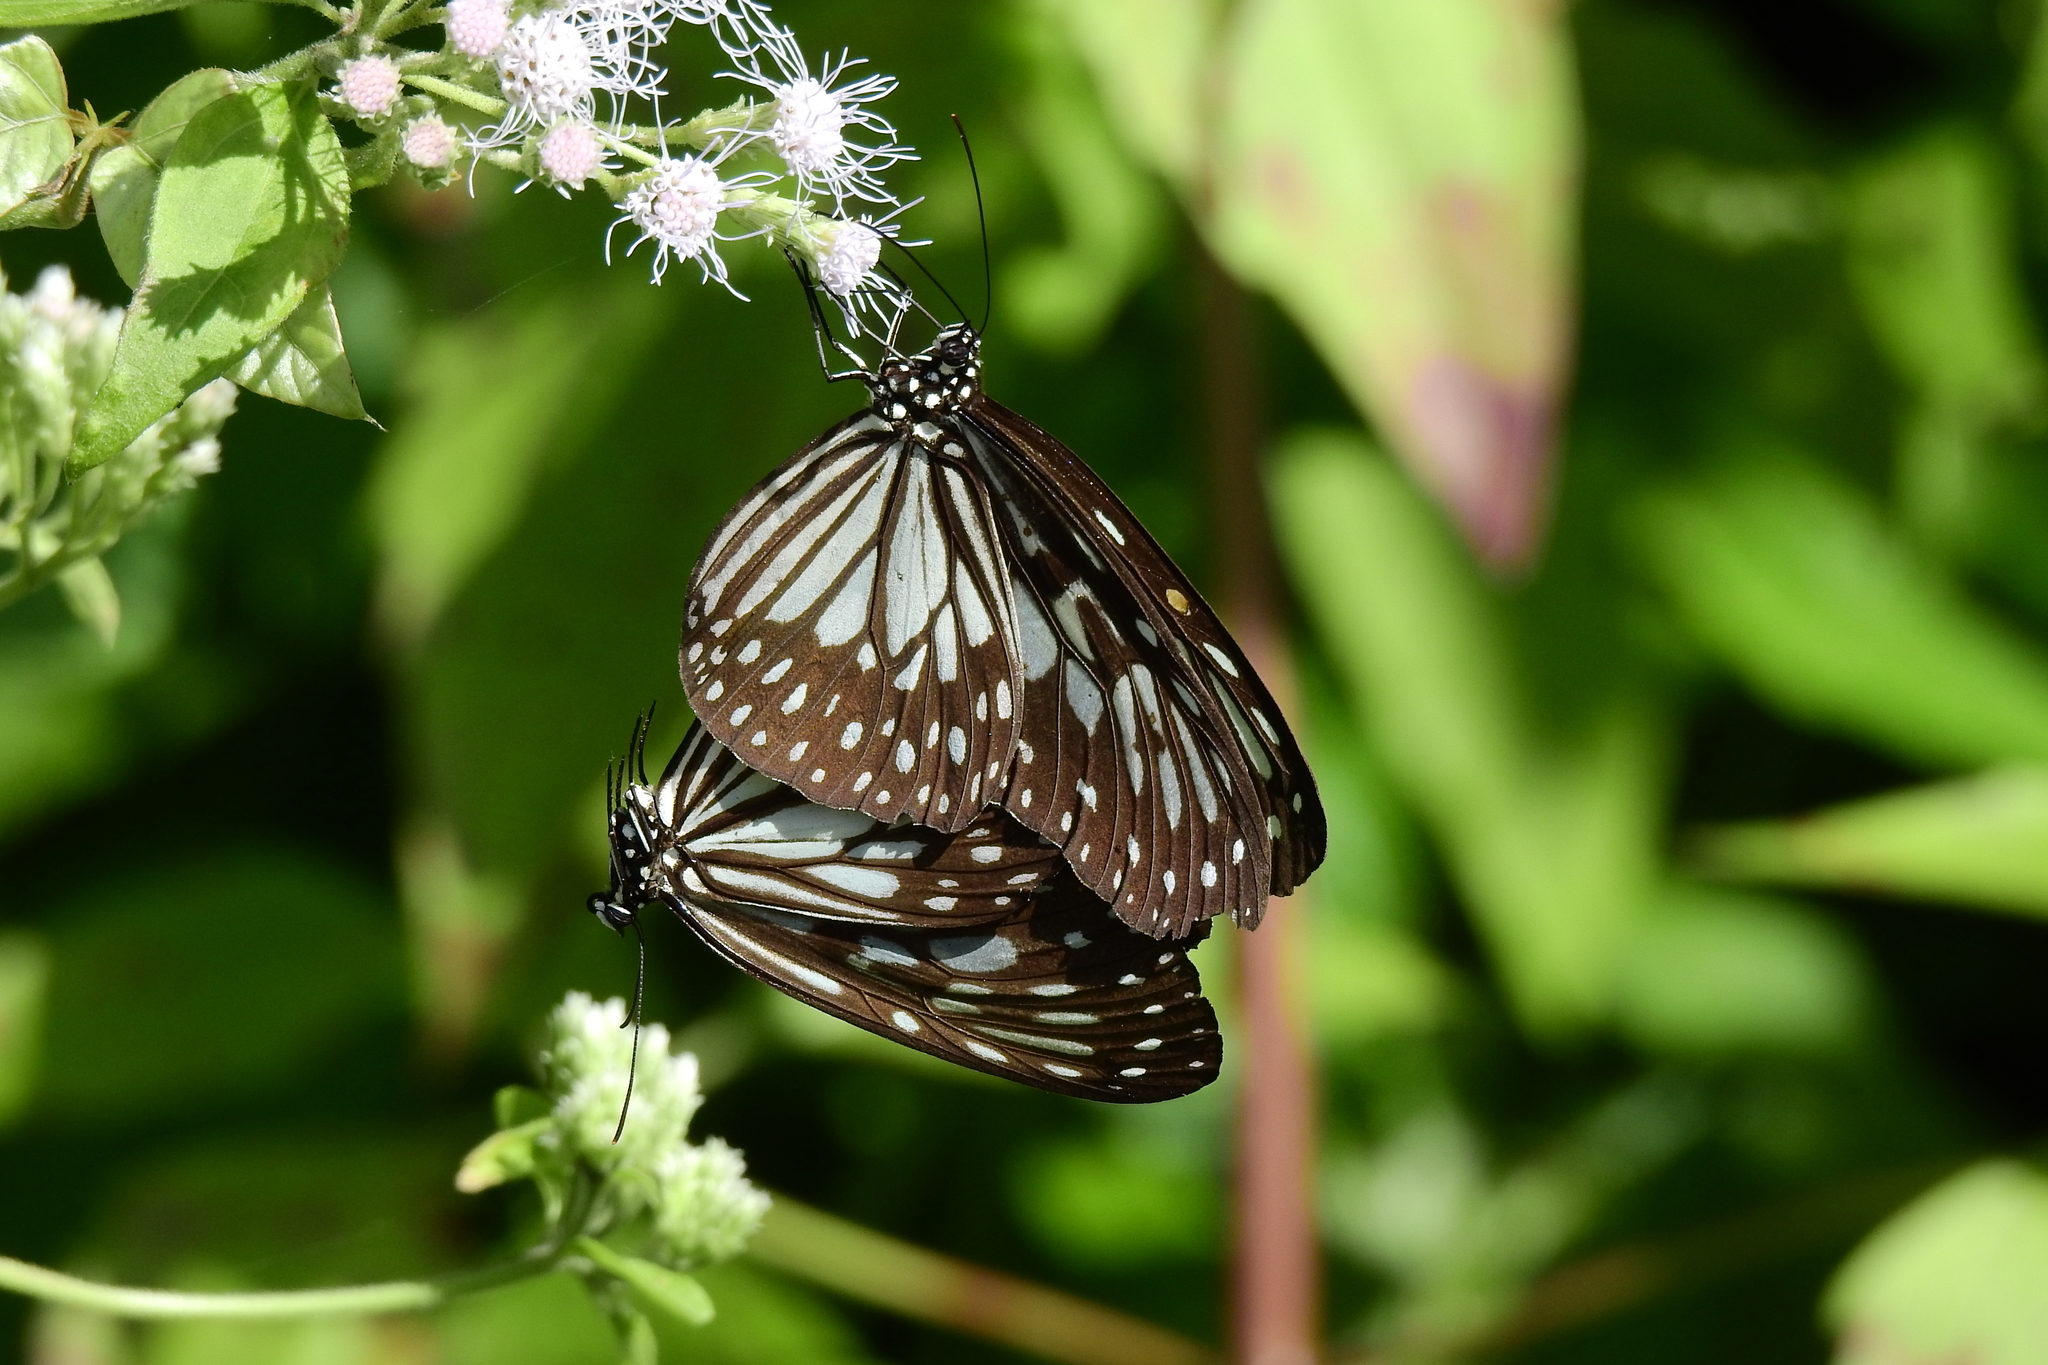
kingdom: Animalia
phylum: Arthropoda
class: Insecta
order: Lepidoptera
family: Nymphalidae
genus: Ideopsis
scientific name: Ideopsis juventa
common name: Grey glassy tiger
